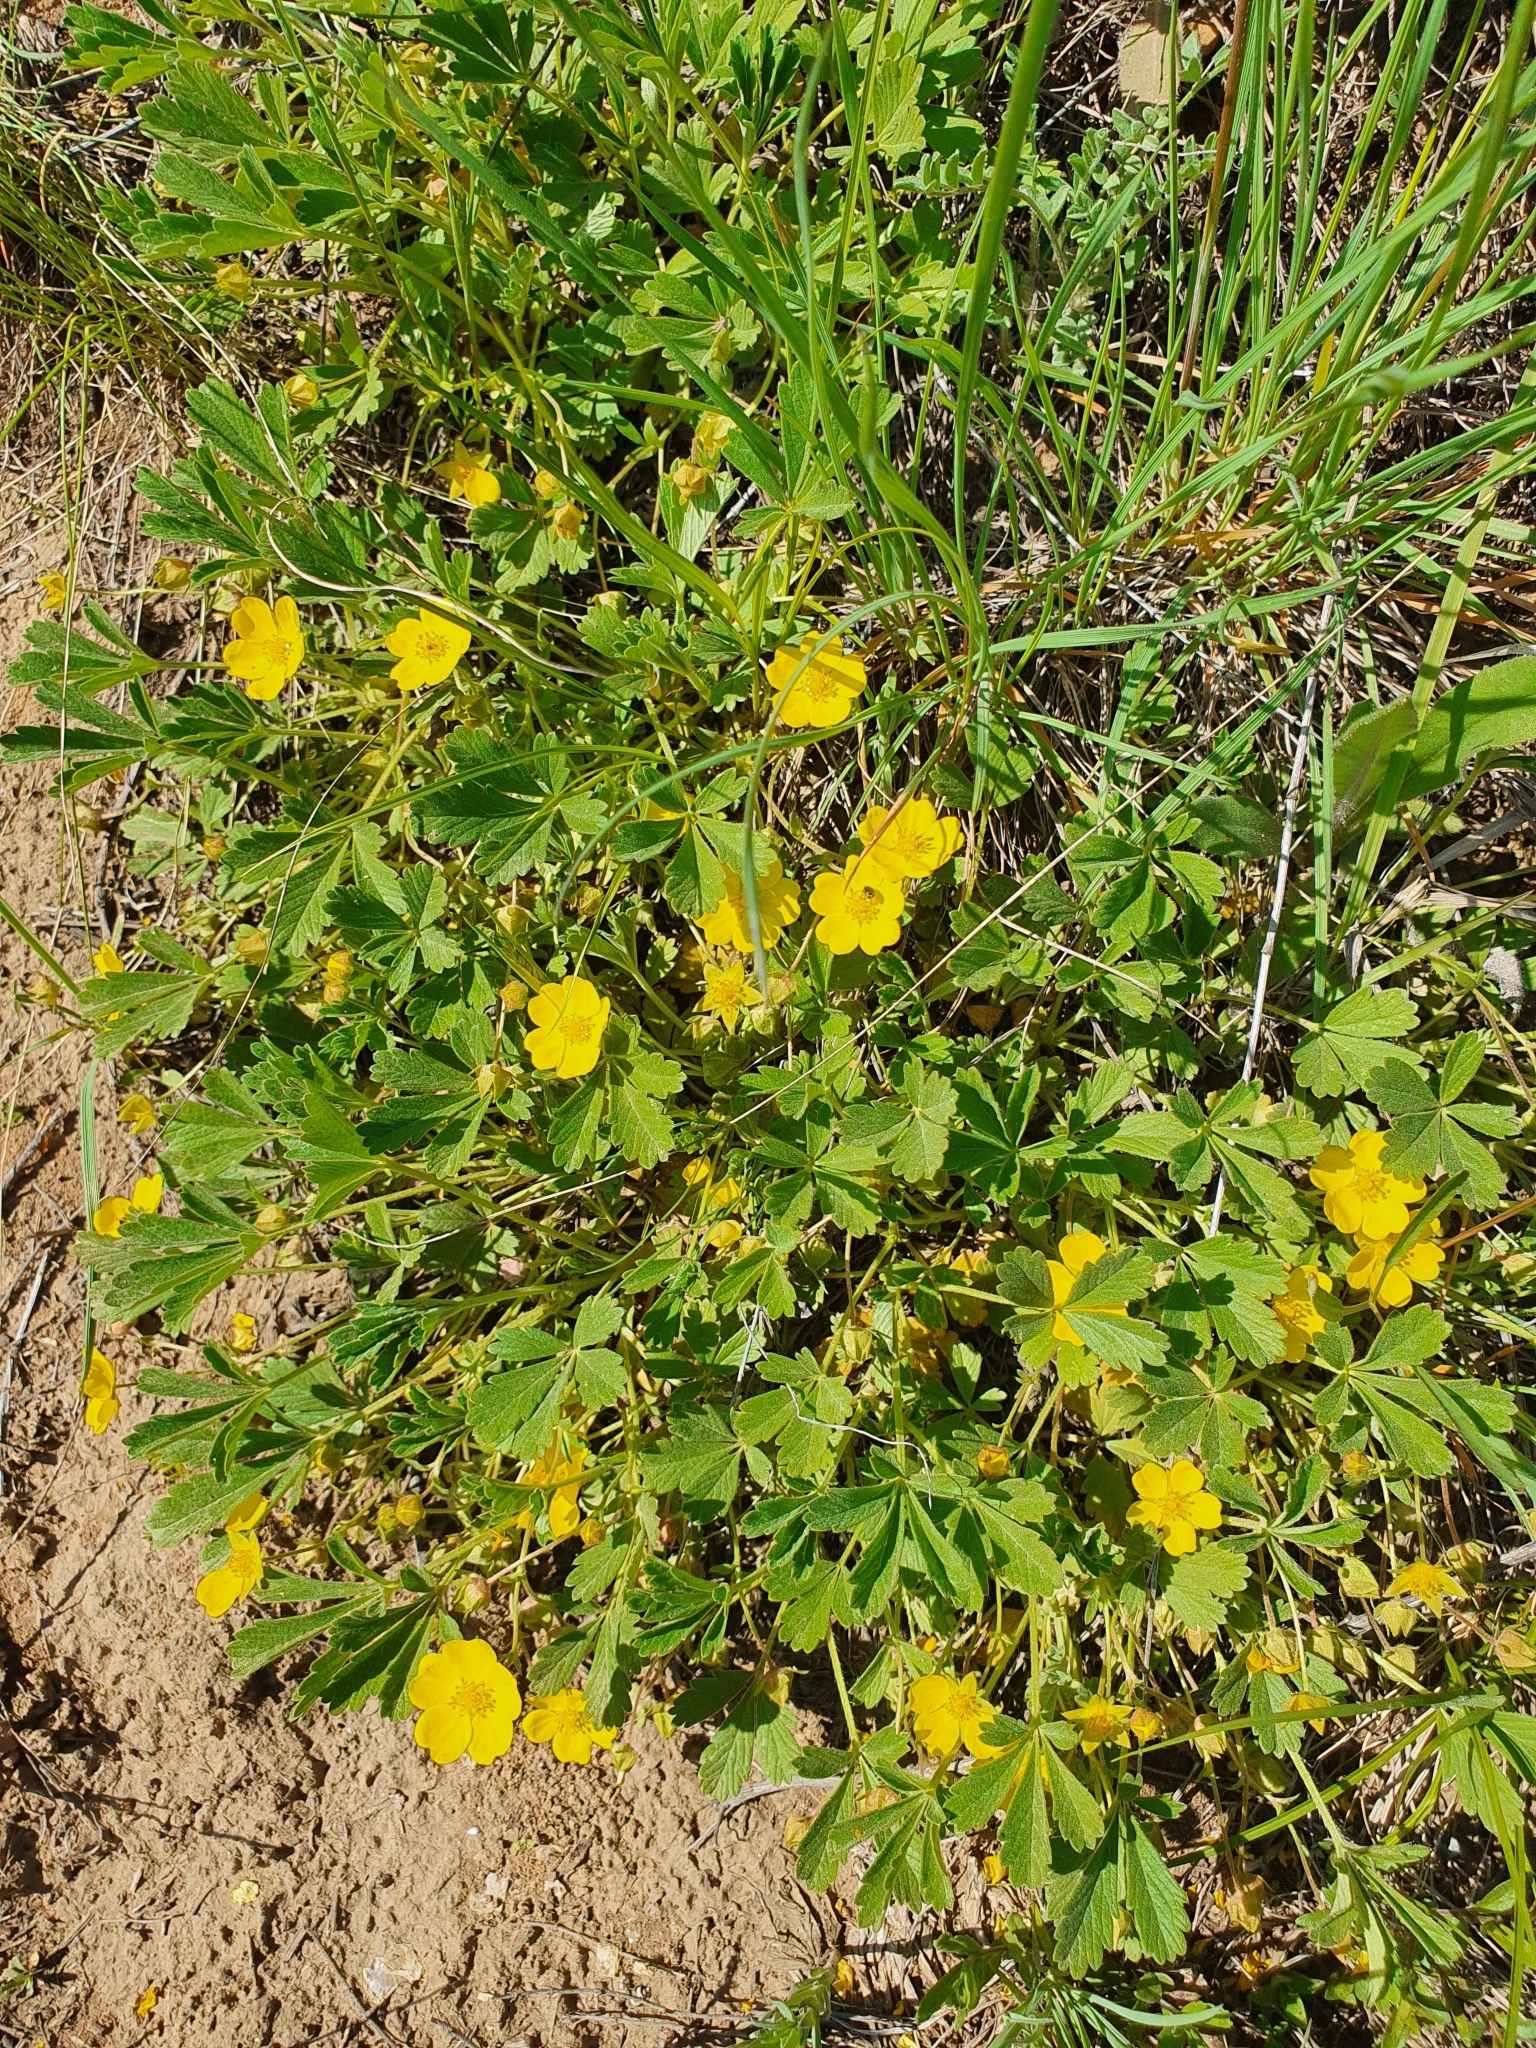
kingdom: Plantae
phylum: Tracheophyta
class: Magnoliopsida
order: Rosales
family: Rosaceae
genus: Potentilla
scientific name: Potentilla incana
